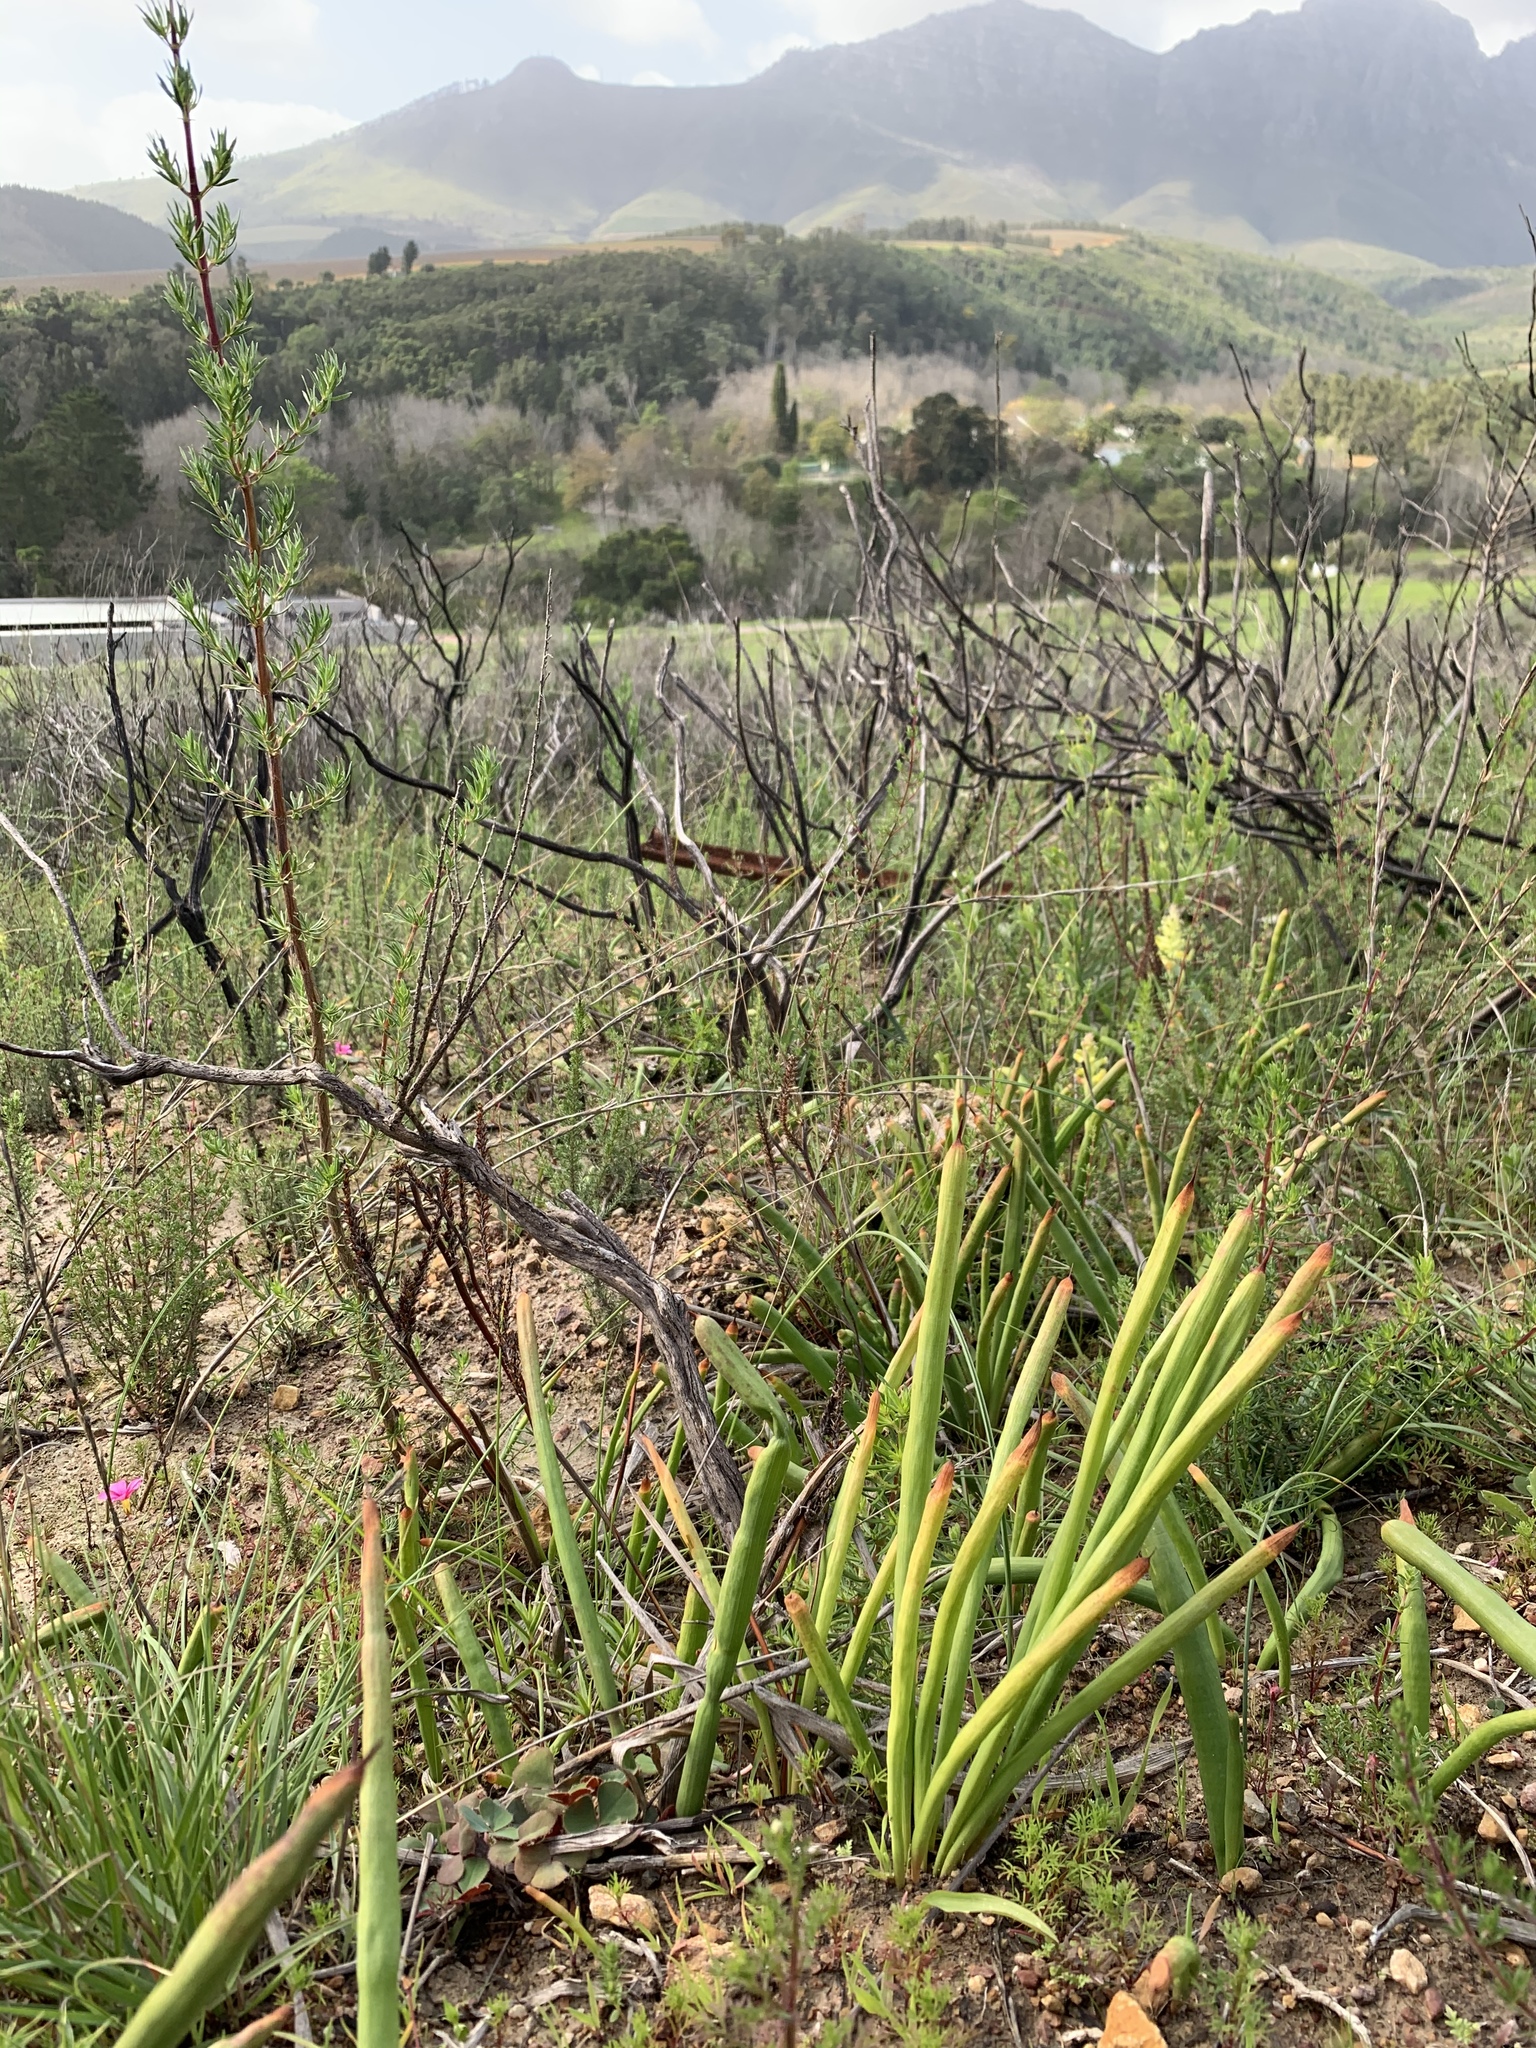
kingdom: Plantae
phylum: Tracheophyta
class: Liliopsida
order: Asparagales
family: Iridaceae
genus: Micranthus
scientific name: Micranthus tubulosus
